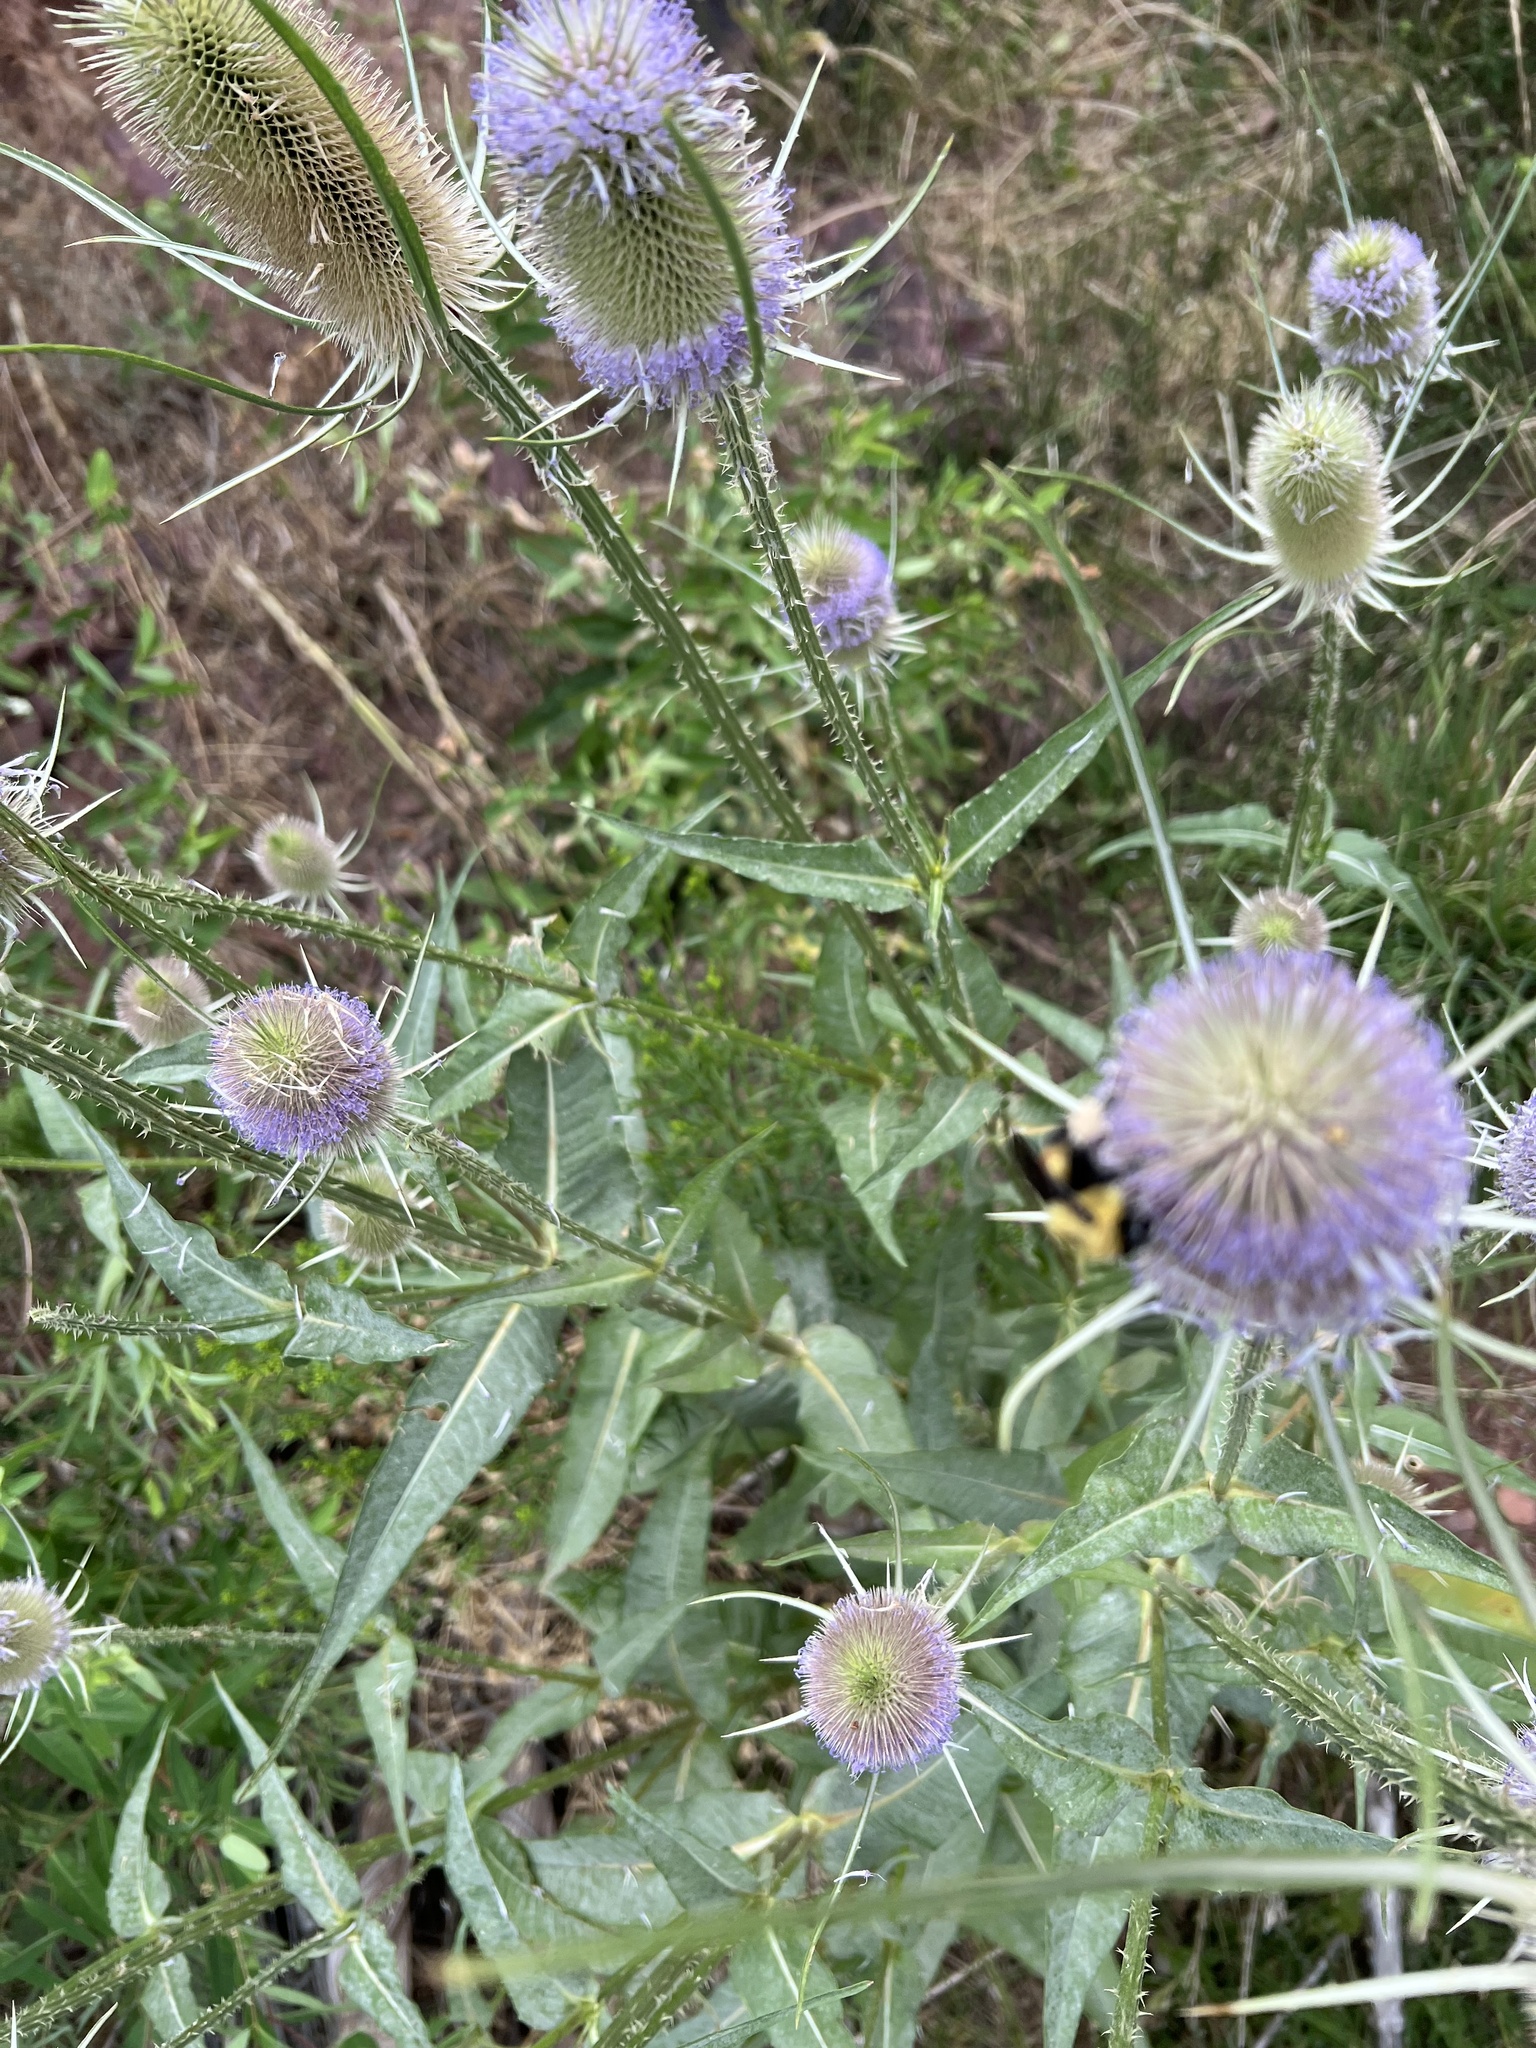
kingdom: Animalia
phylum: Arthropoda
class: Insecta
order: Hymenoptera
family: Apidae
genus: Bombus
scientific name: Bombus griseocollis
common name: Brown-belted bumble bee
